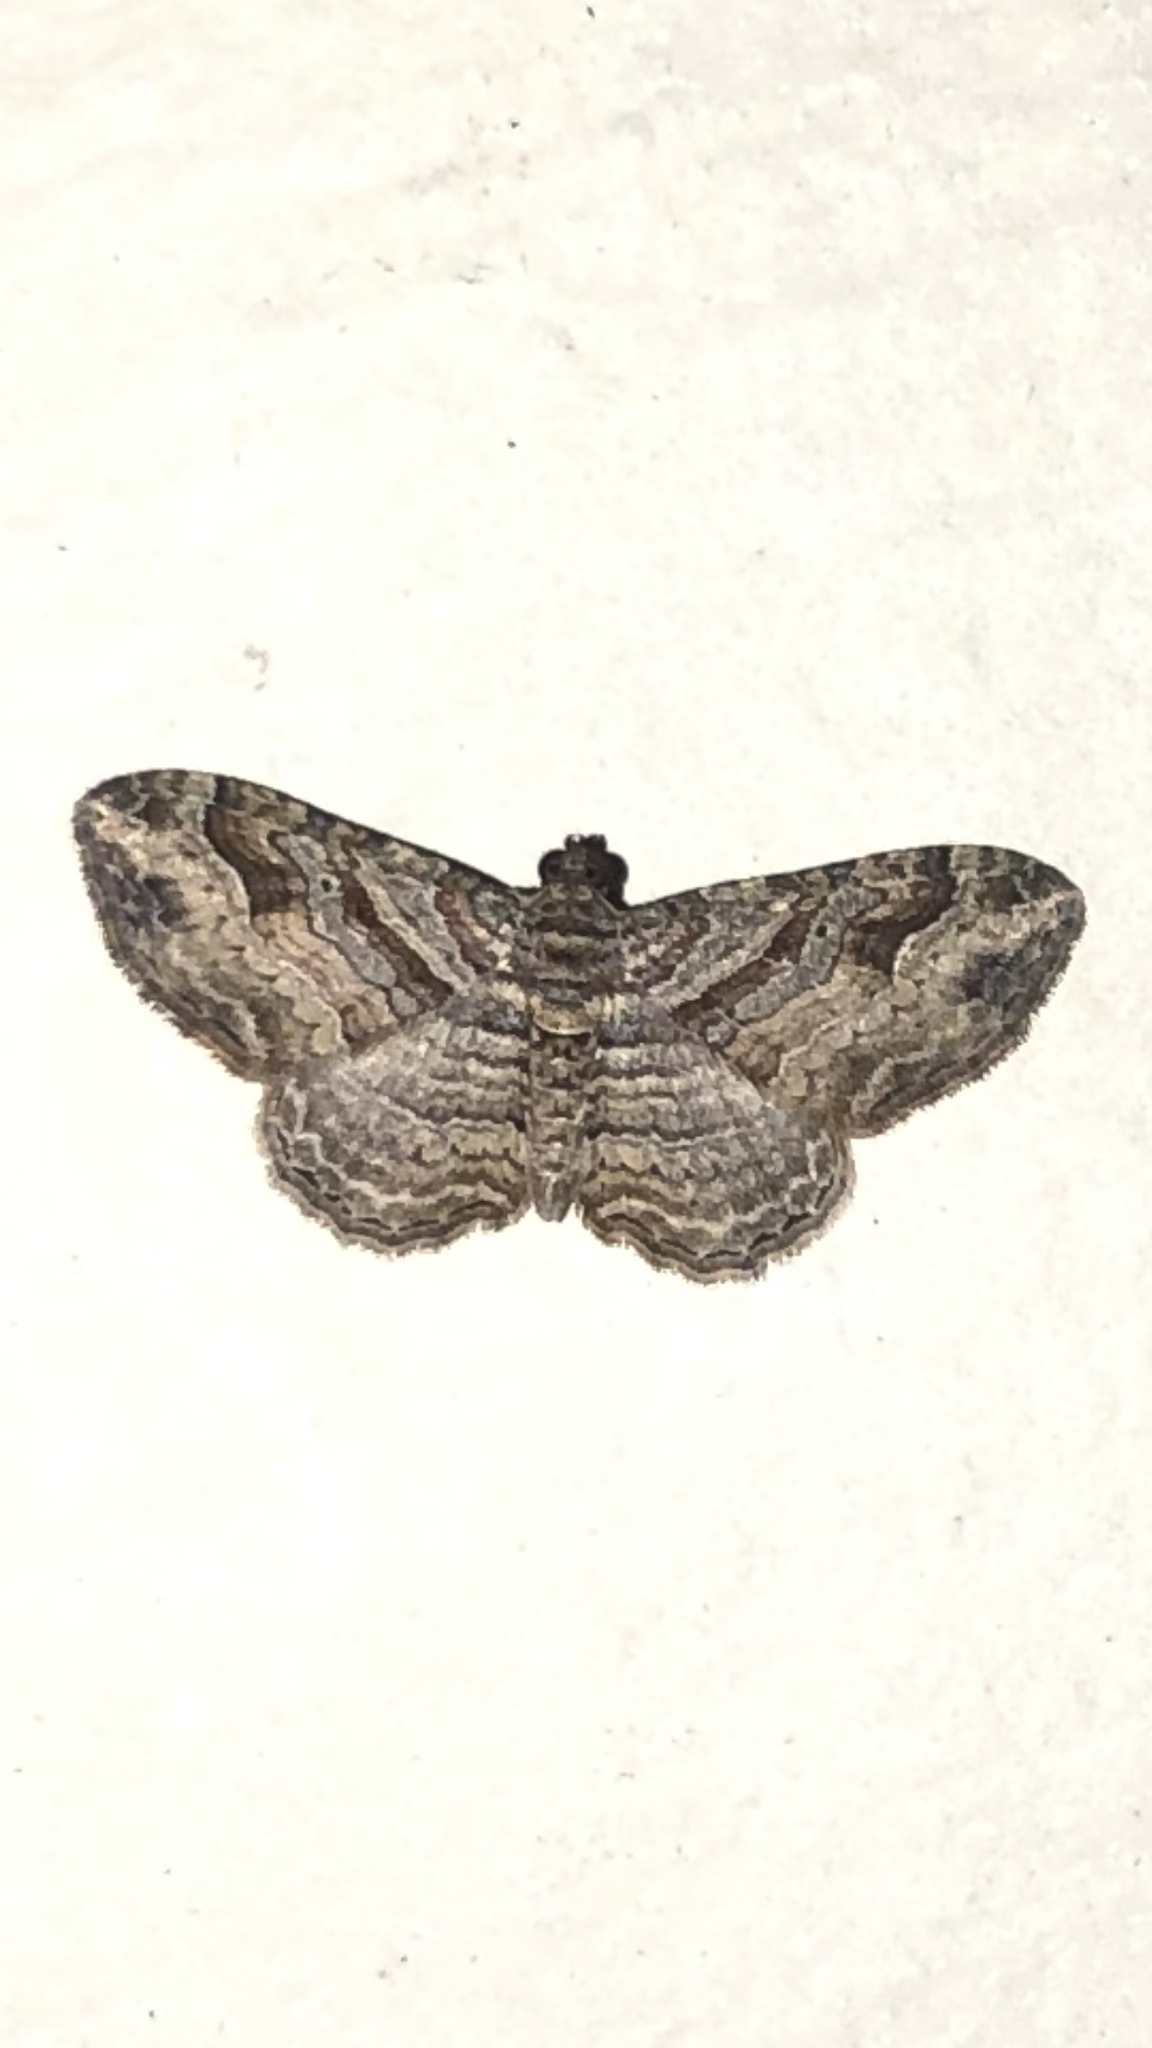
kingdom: Animalia
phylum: Arthropoda
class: Insecta
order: Lepidoptera
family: Geometridae
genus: Costaconvexa
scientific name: Costaconvexa centrostrigaria
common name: Bent-line carpet
